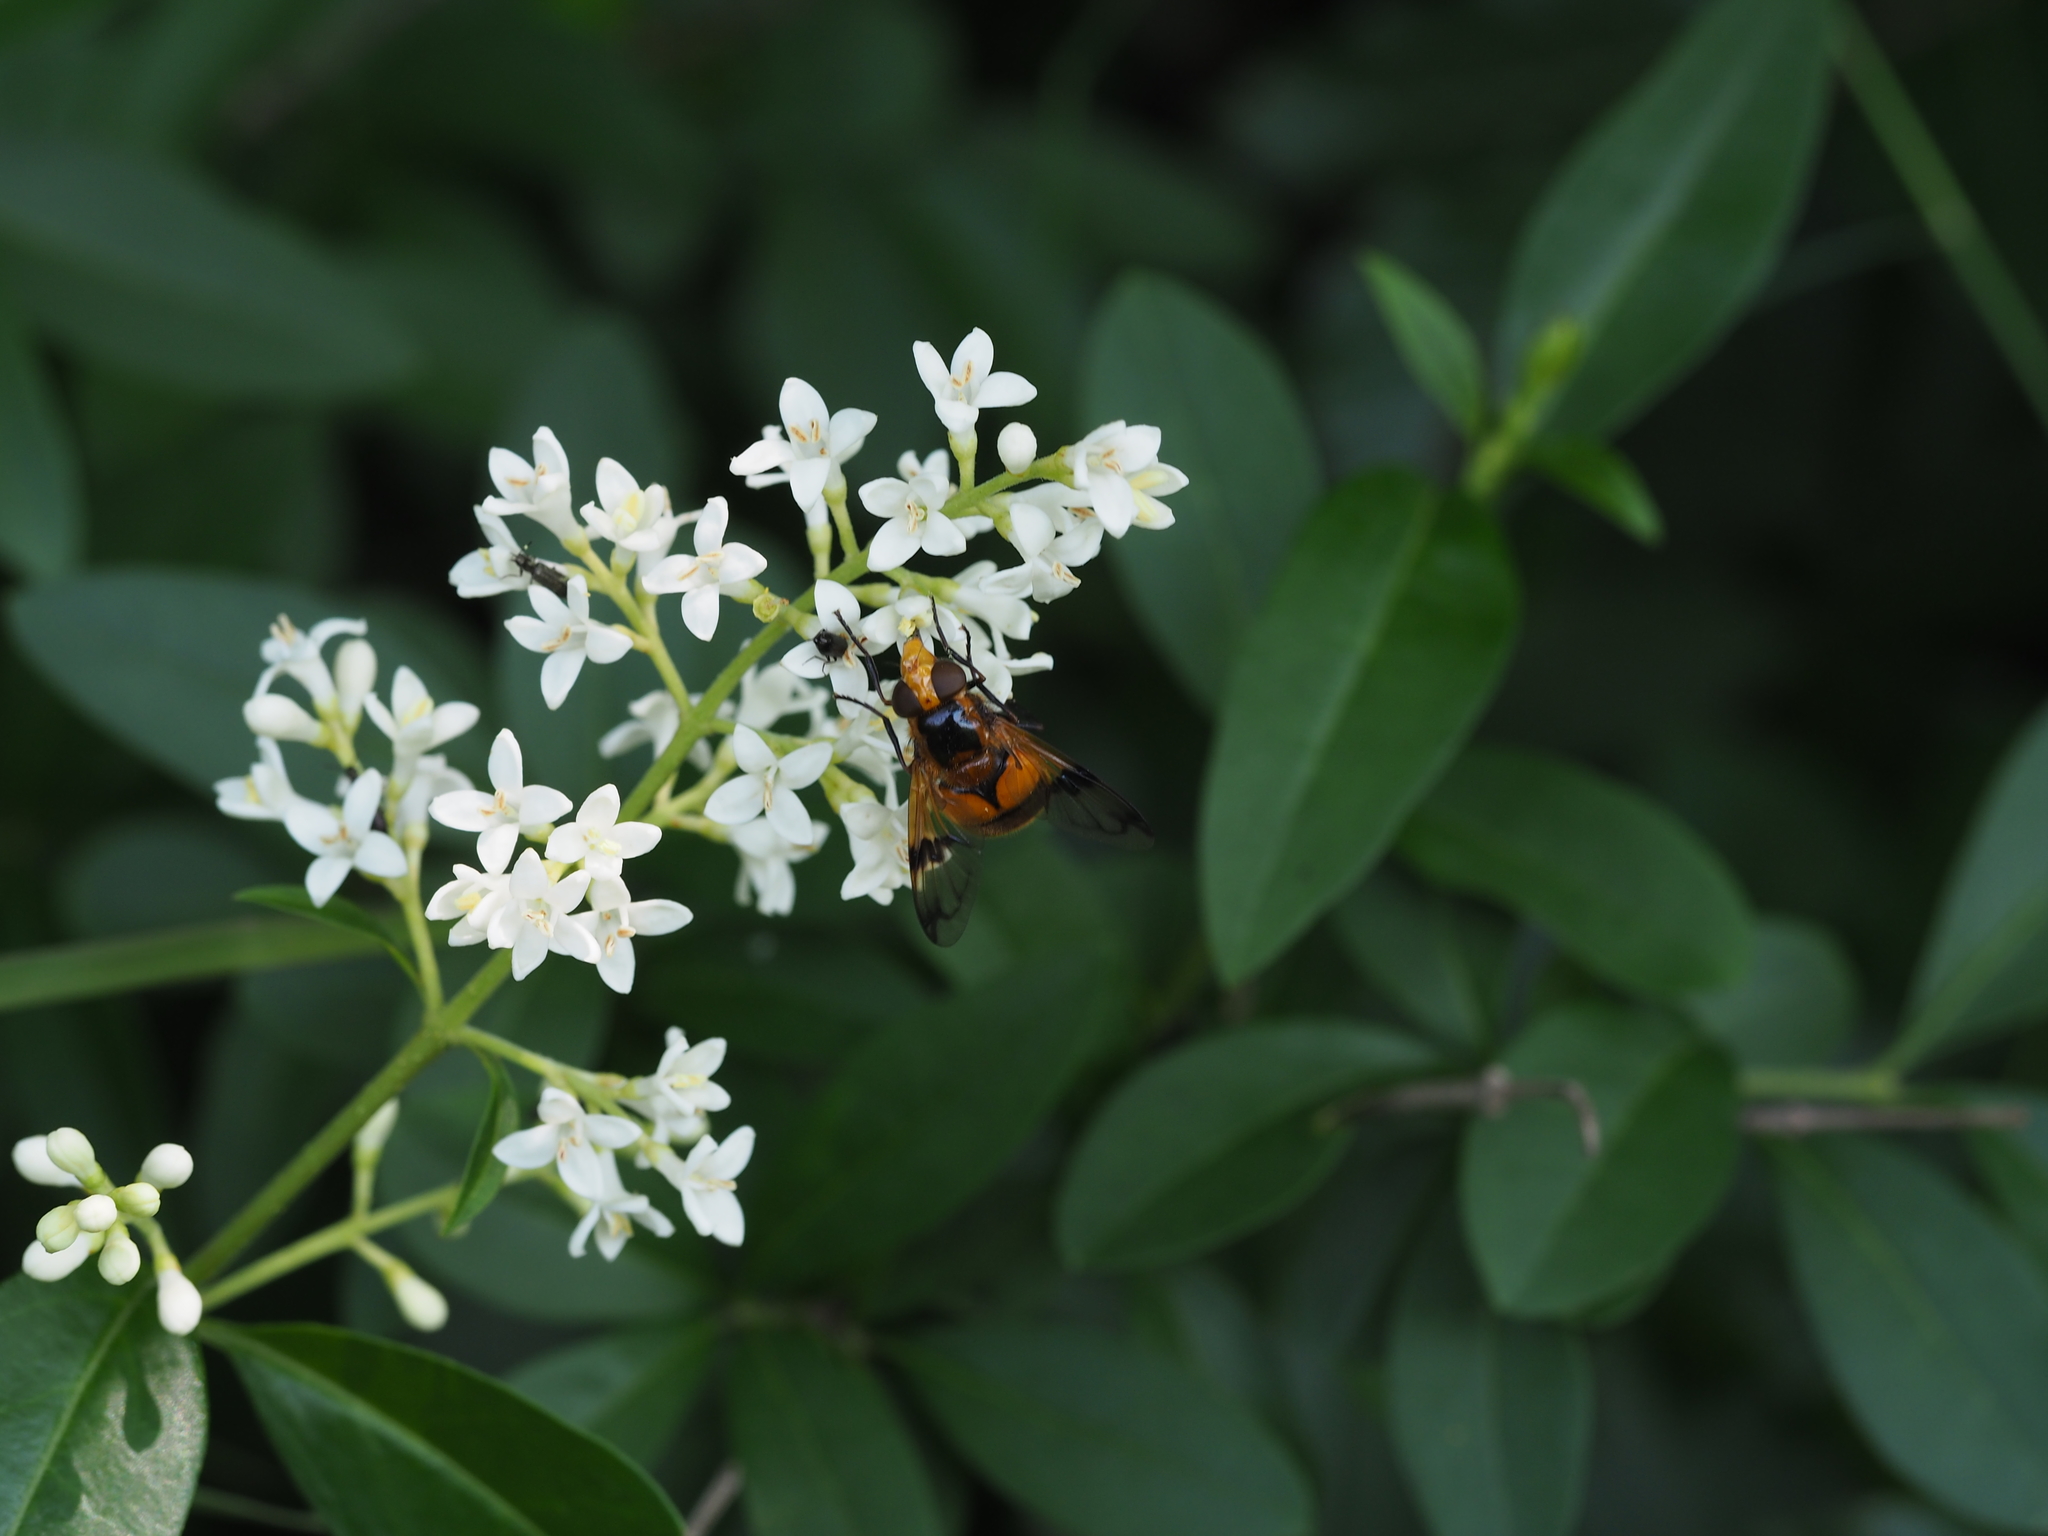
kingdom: Animalia
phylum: Arthropoda
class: Insecta
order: Diptera
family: Syrphidae
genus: Volucella
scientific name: Volucella inflata
